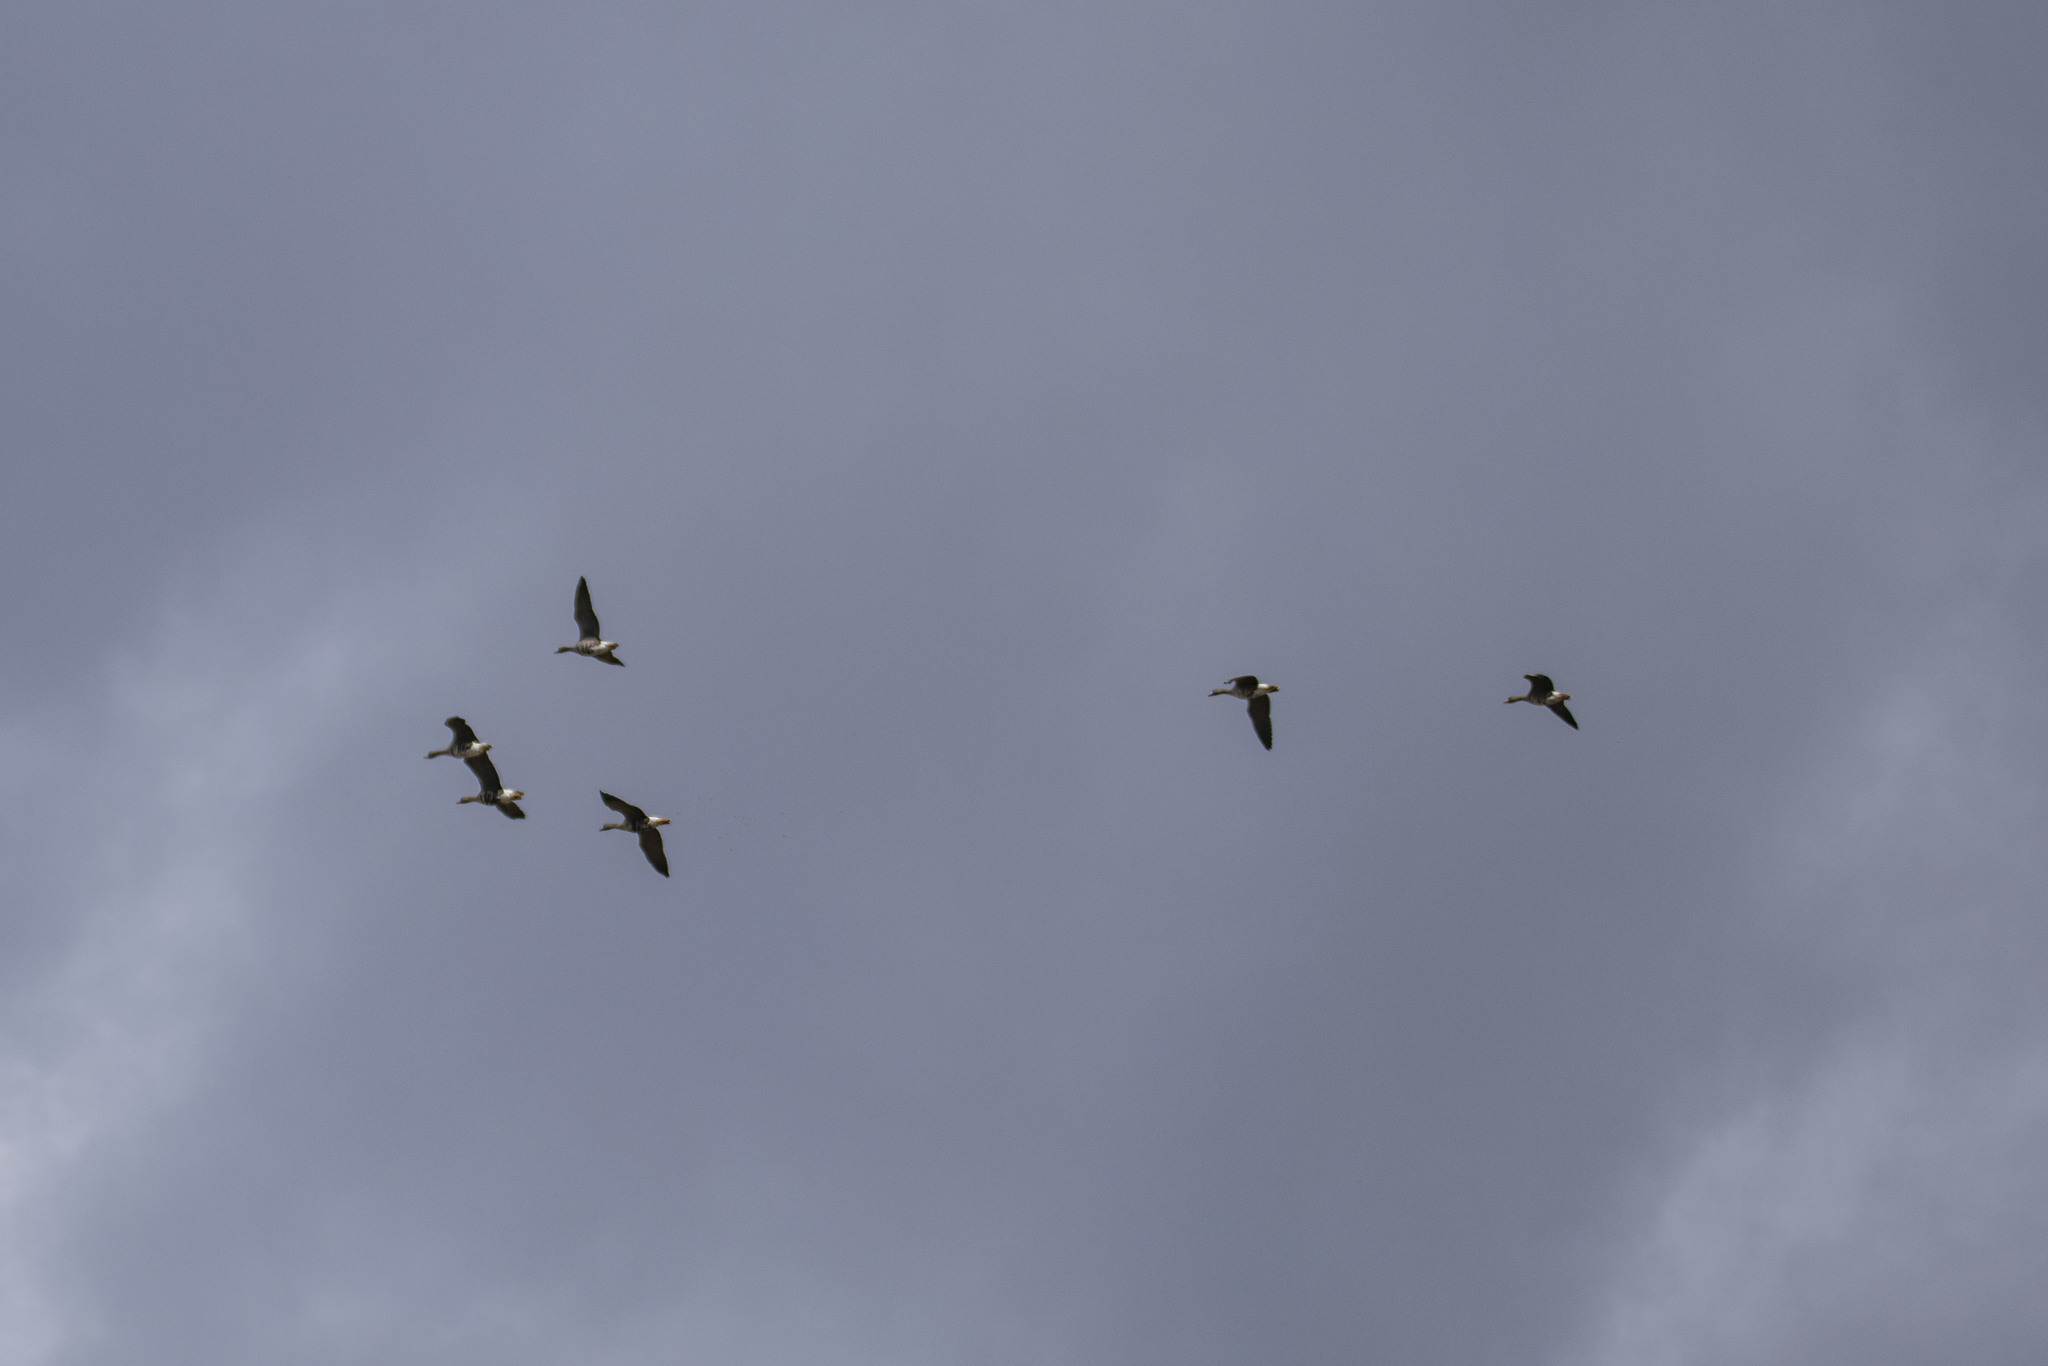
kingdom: Animalia
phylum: Chordata
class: Aves
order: Anseriformes
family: Anatidae
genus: Anser
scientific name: Anser albifrons
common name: Greater white-fronted goose
